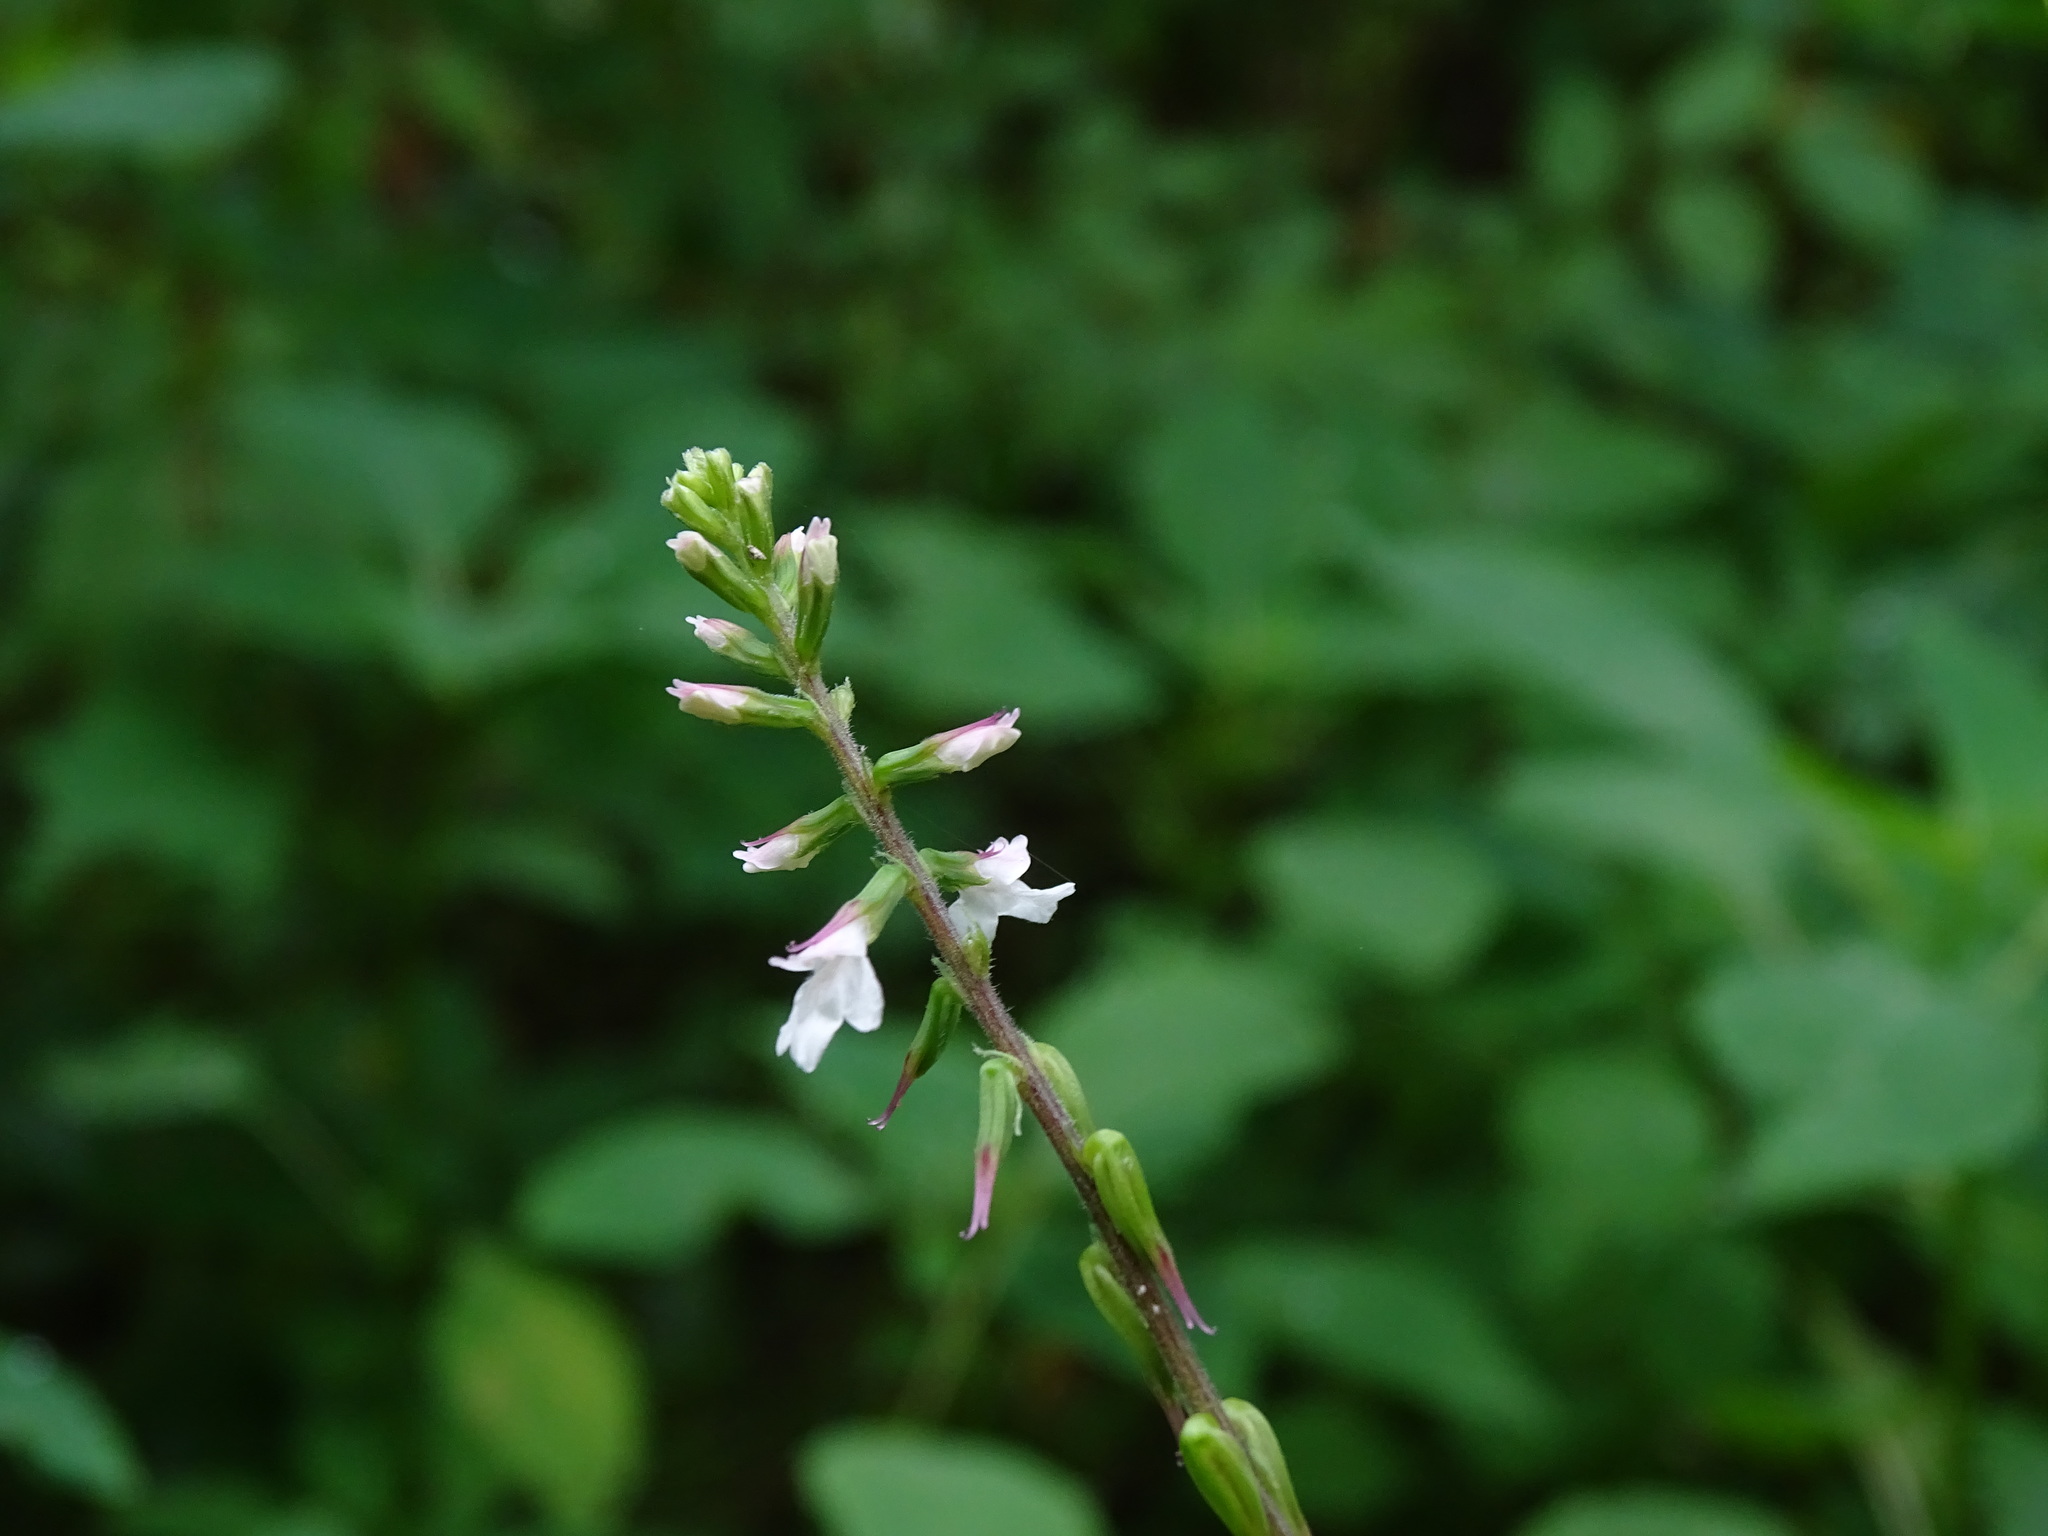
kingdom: Plantae
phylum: Tracheophyta
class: Magnoliopsida
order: Lamiales
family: Phrymaceae
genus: Phryma
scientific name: Phryma leptostachya
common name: American lopseed
